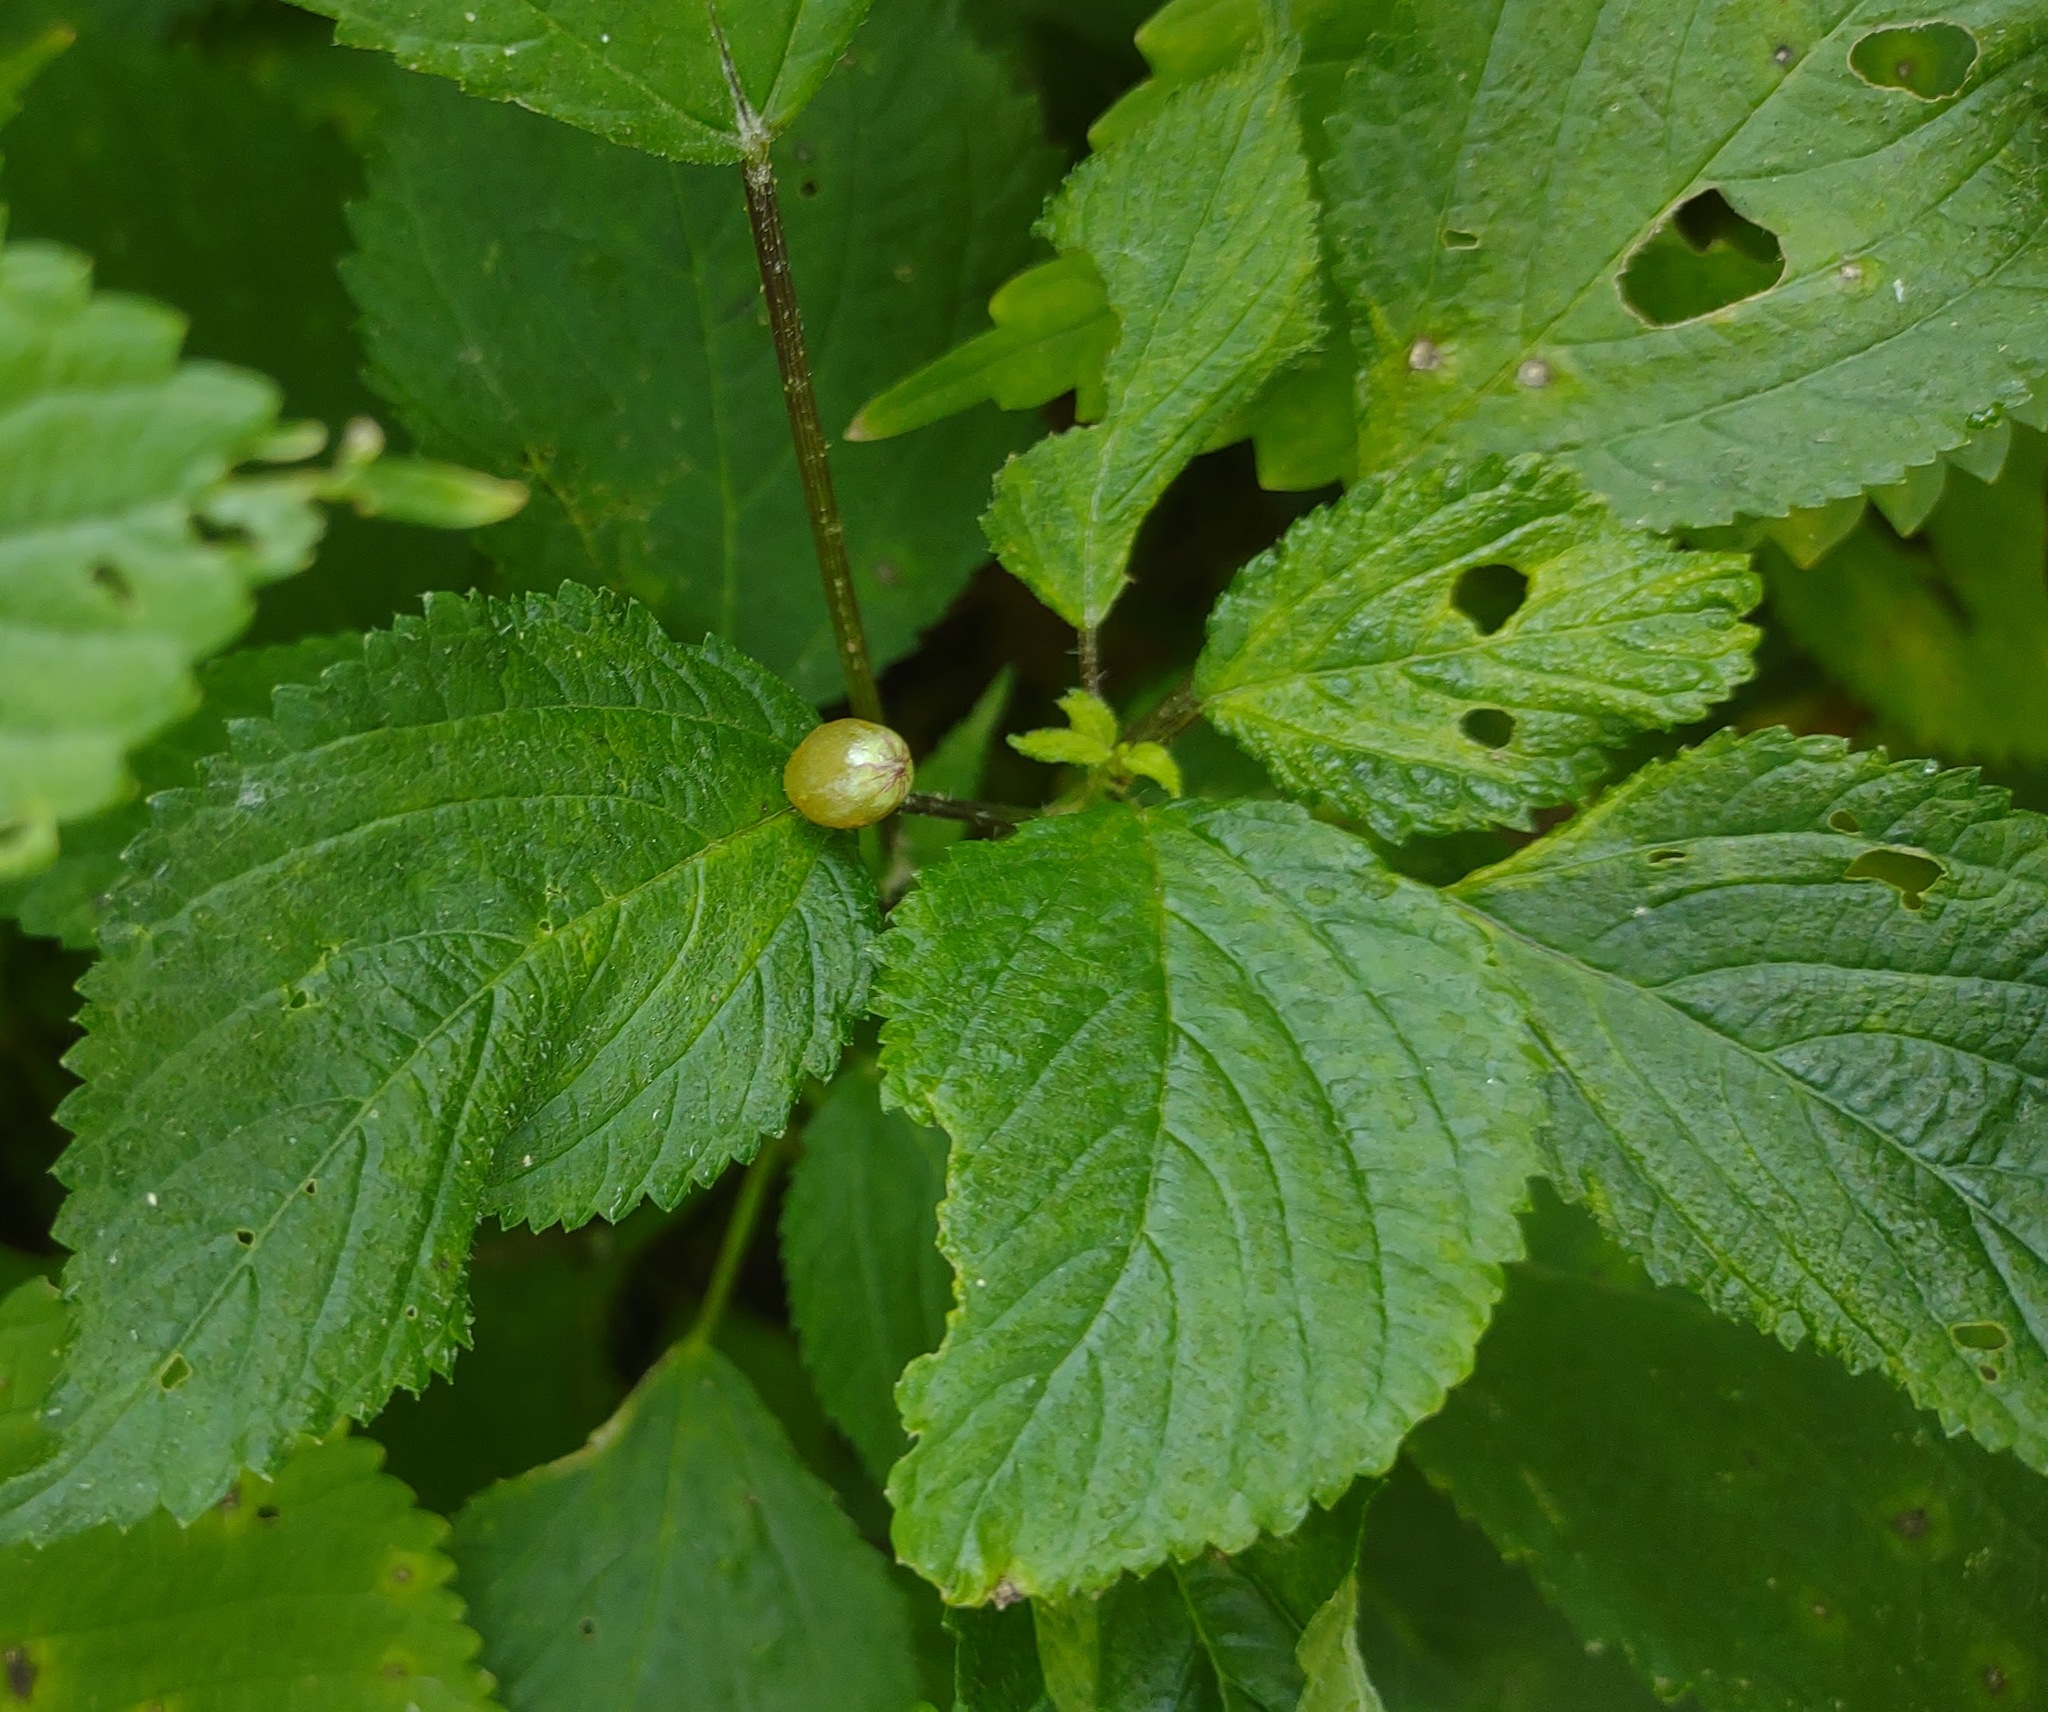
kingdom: Animalia
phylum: Arthropoda
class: Insecta
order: Diptera
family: Cecidomyiidae
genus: Dasineura
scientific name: Dasineura investita
